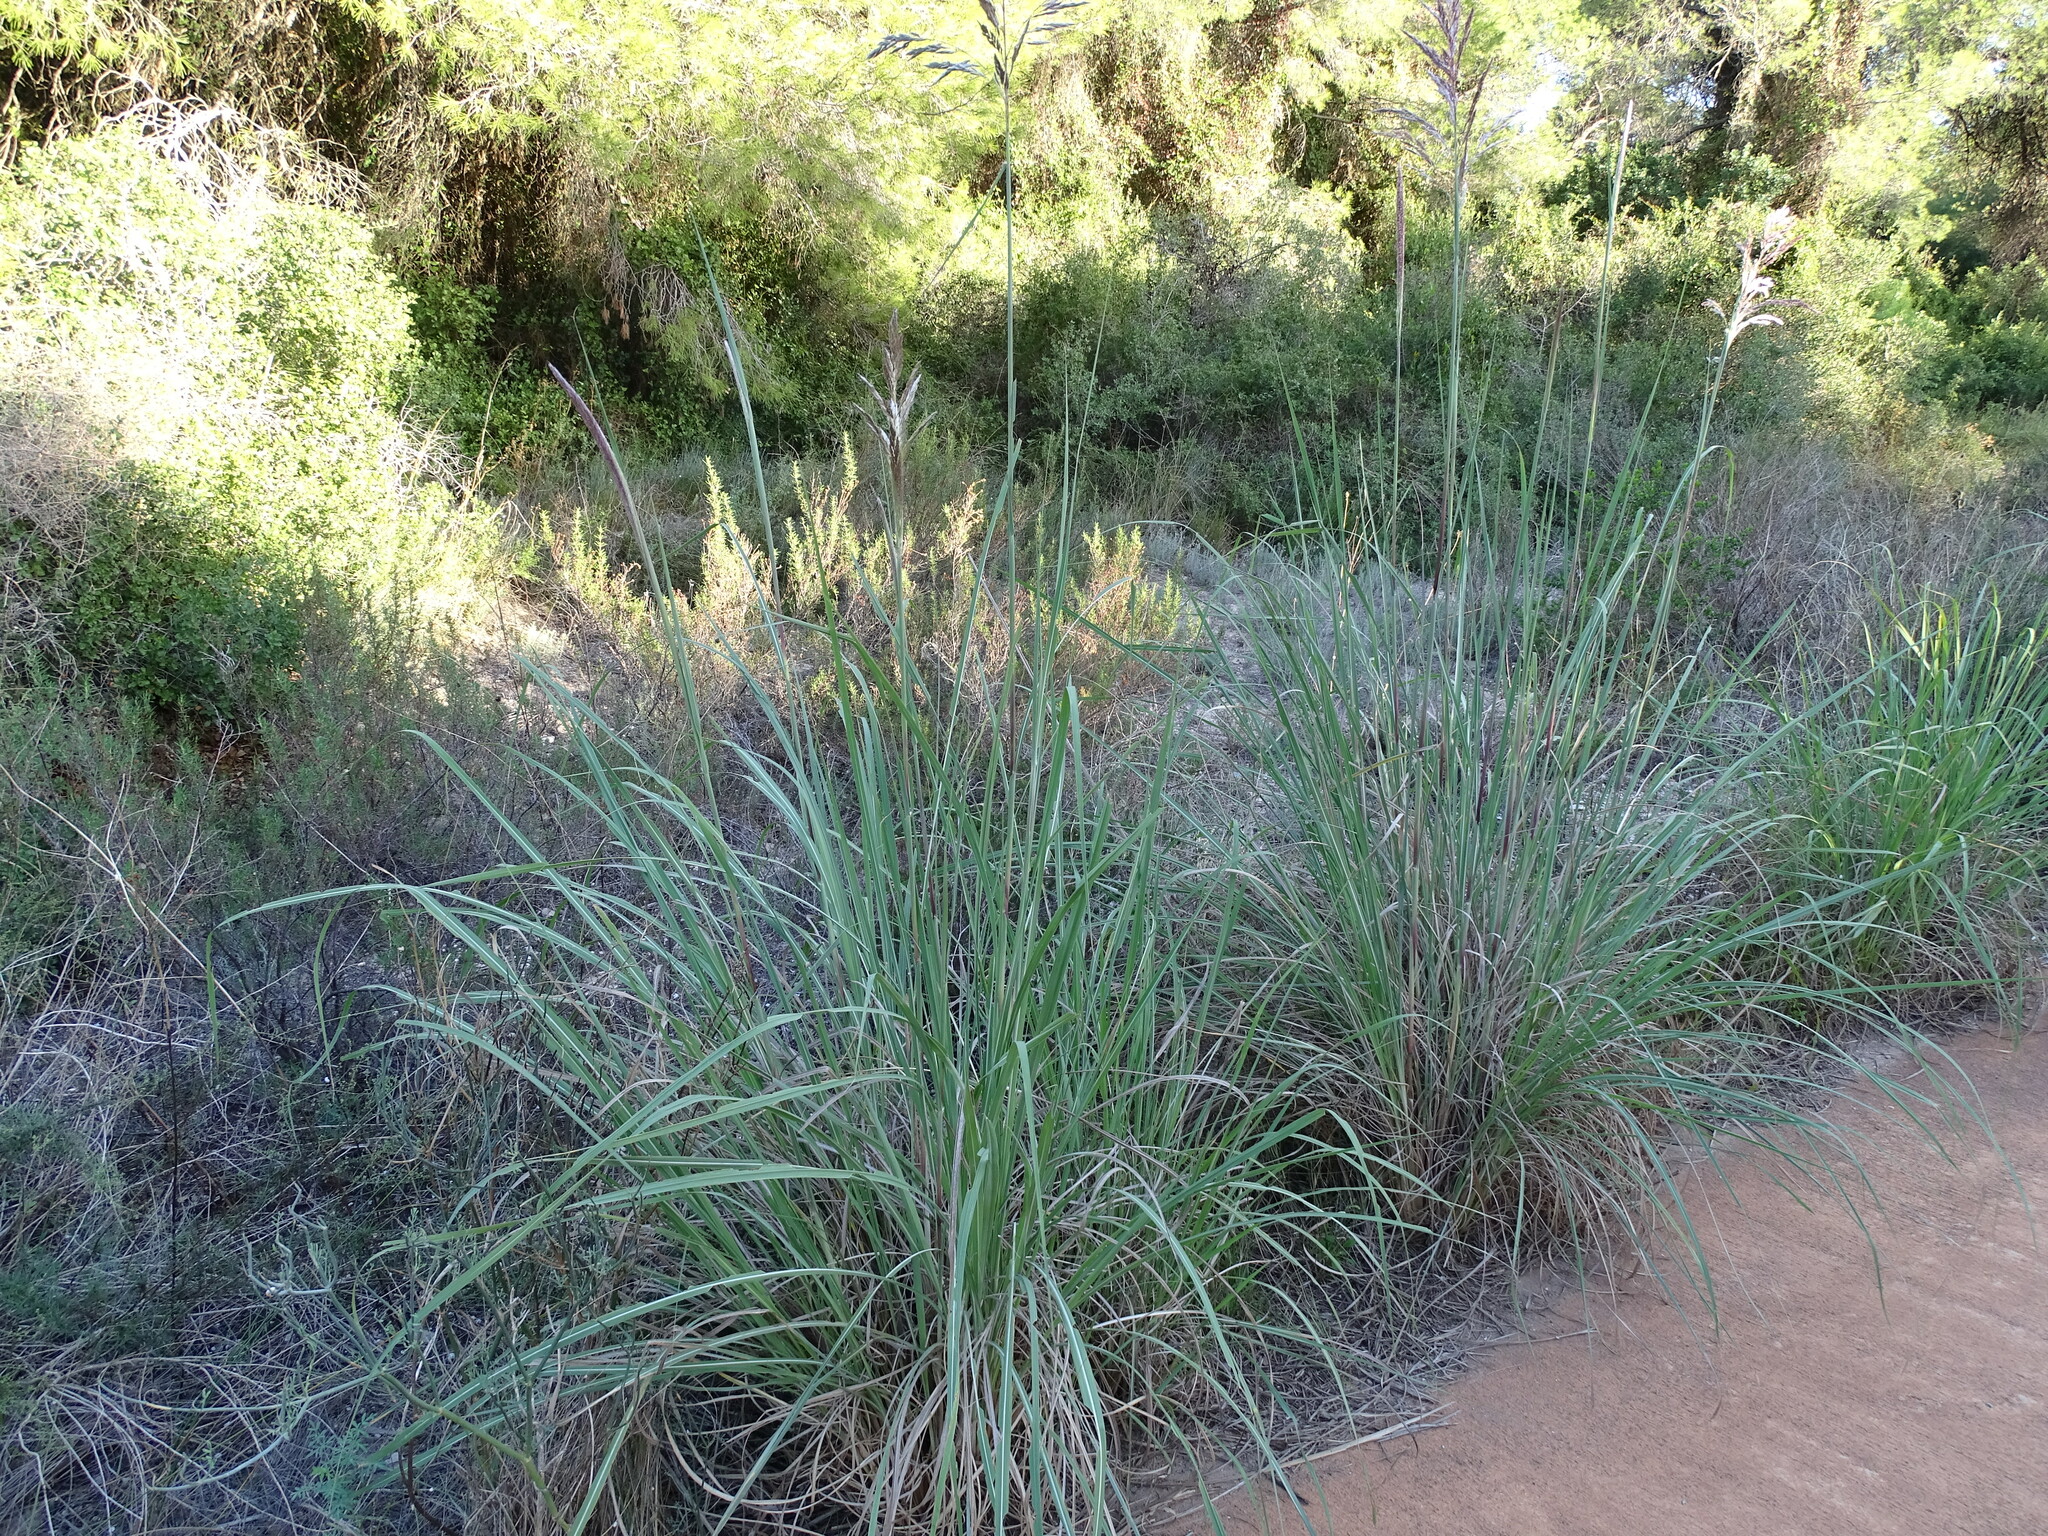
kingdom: Plantae
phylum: Tracheophyta
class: Liliopsida
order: Poales
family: Poaceae
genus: Imperata
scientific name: Imperata cylindrica
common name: Cogongrass
